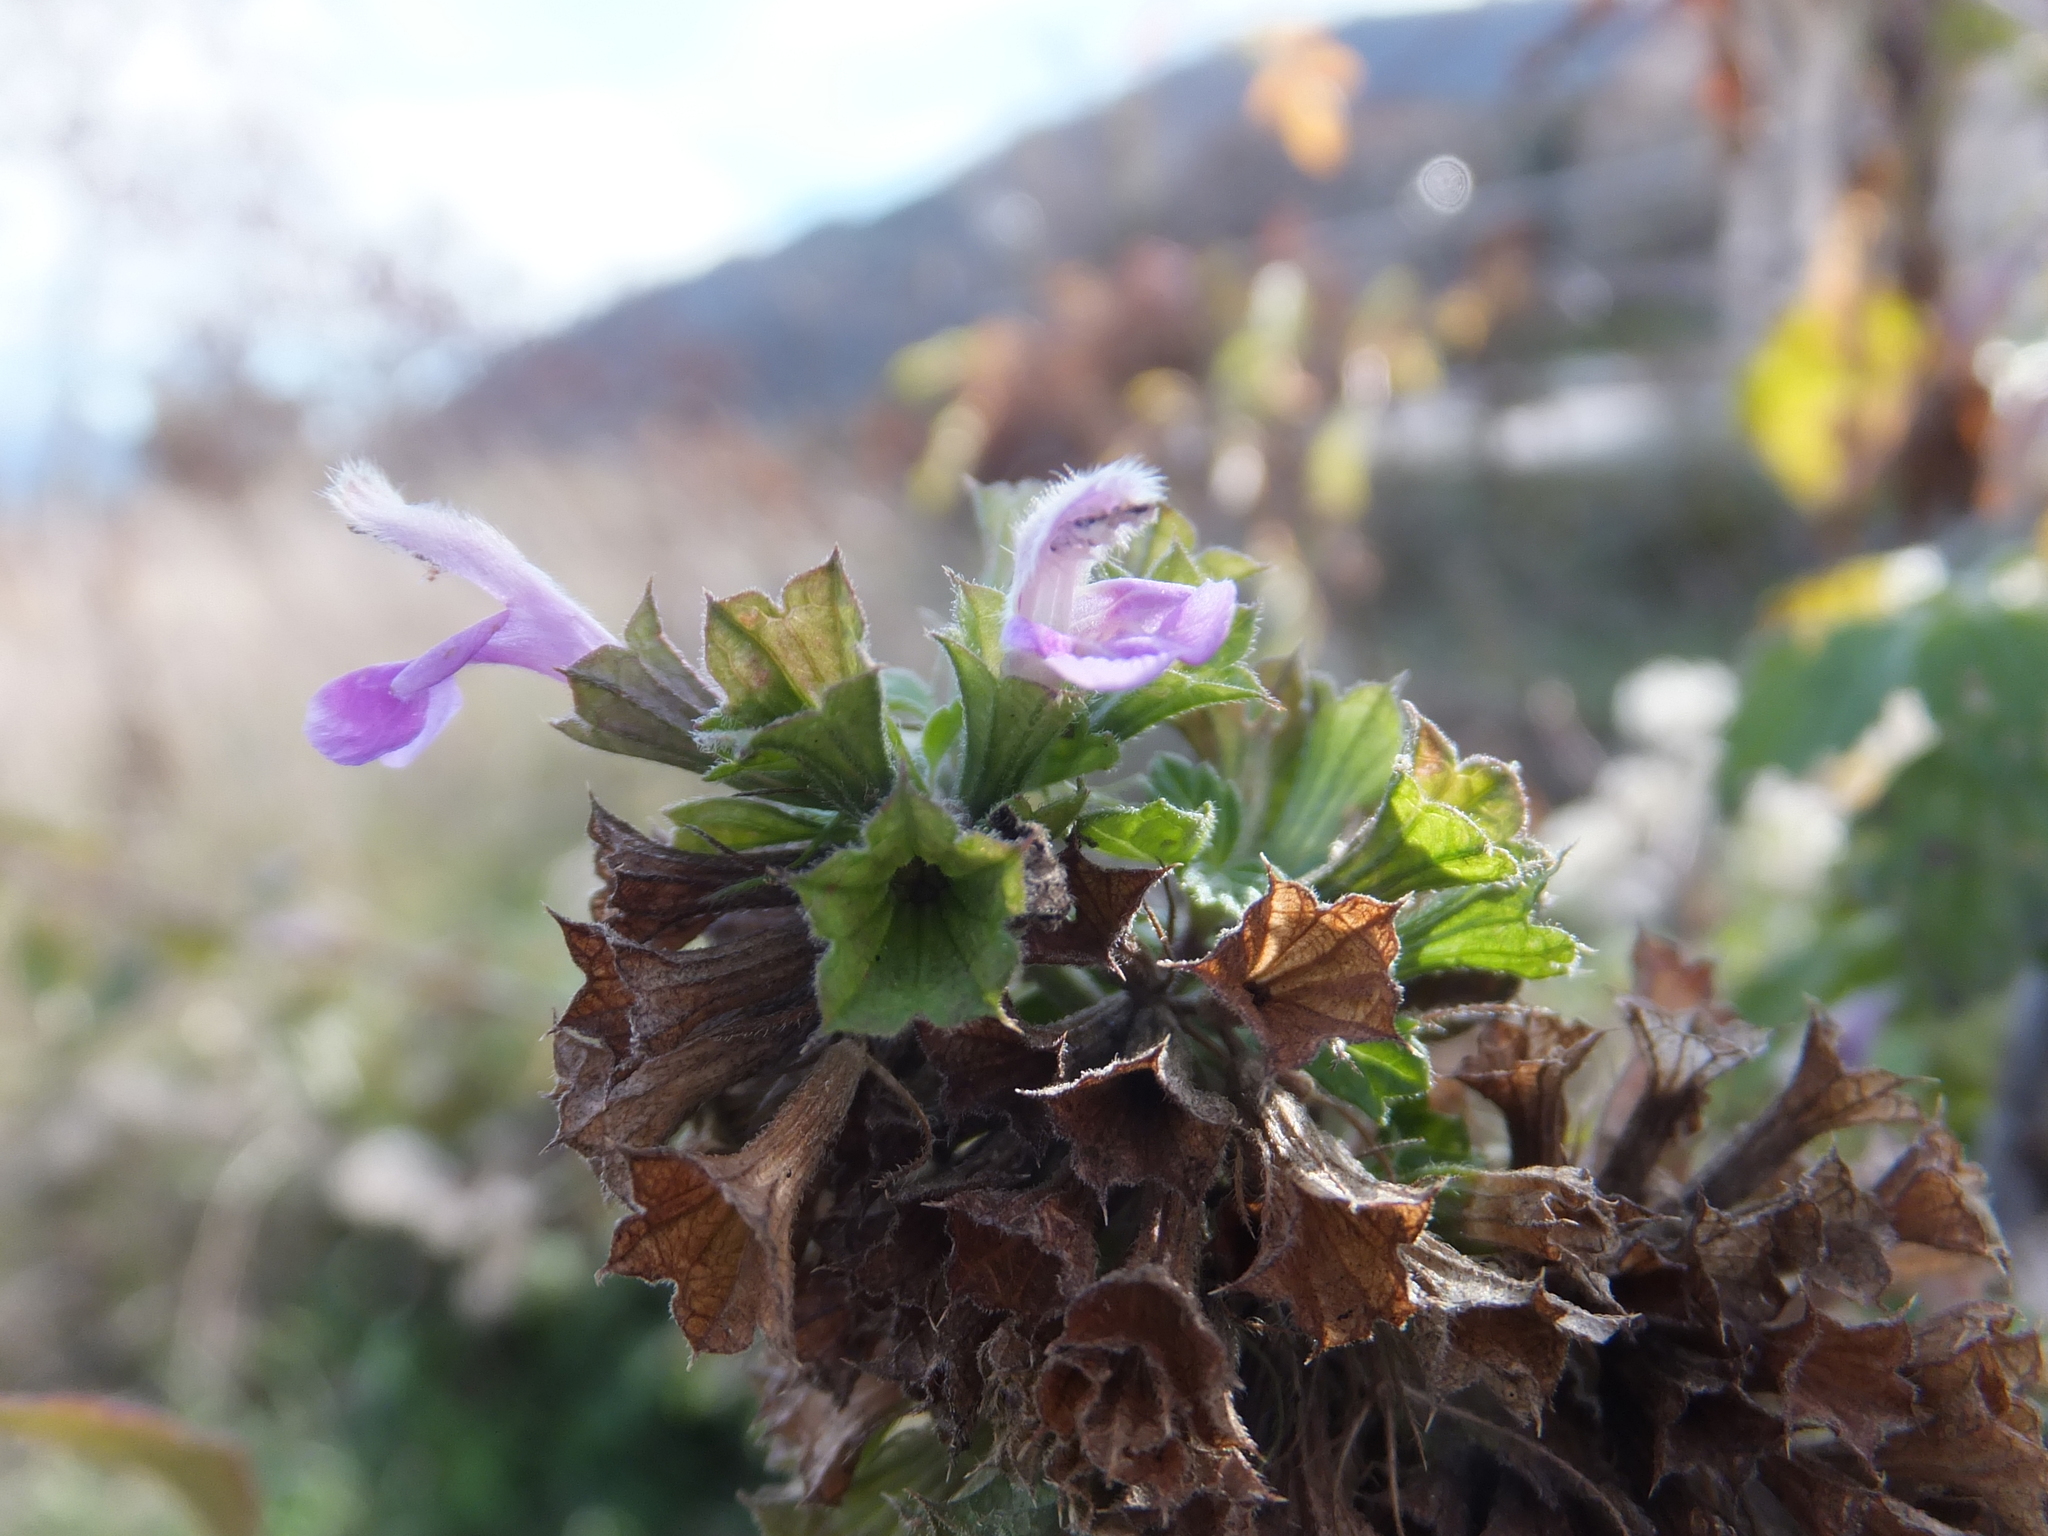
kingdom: Plantae
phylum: Tracheophyta
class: Magnoliopsida
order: Lamiales
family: Lamiaceae
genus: Ballota
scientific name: Ballota nigra
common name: Black horehound
